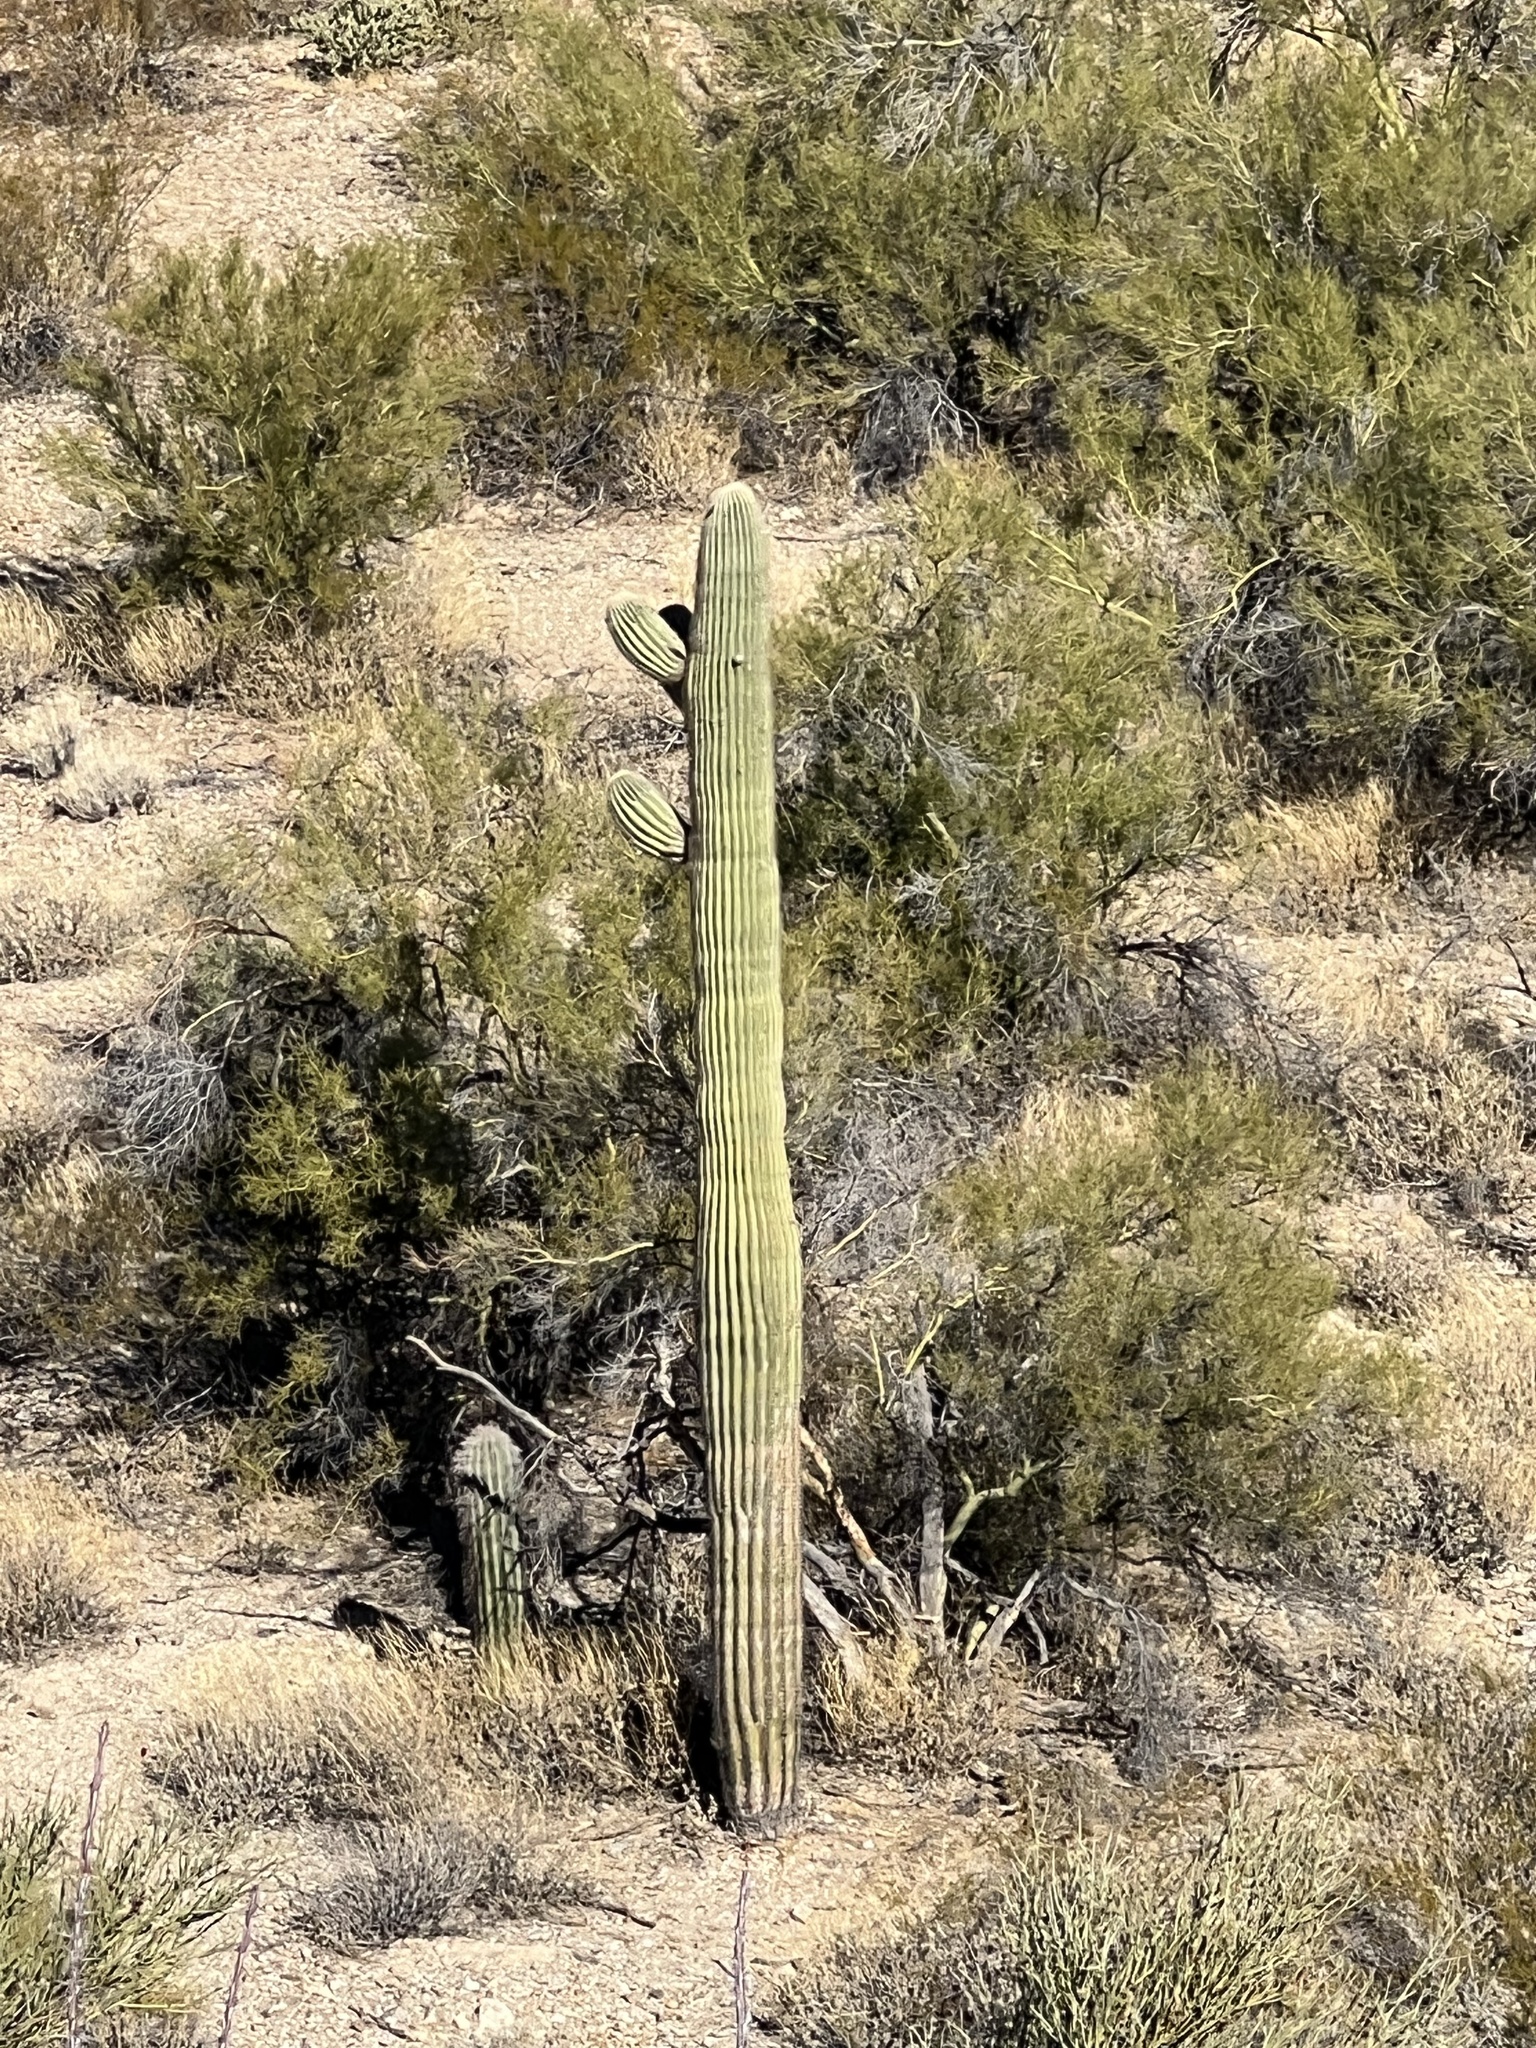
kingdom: Plantae
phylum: Tracheophyta
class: Magnoliopsida
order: Caryophyllales
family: Cactaceae
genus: Carnegiea
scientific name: Carnegiea gigantea
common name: Saguaro
